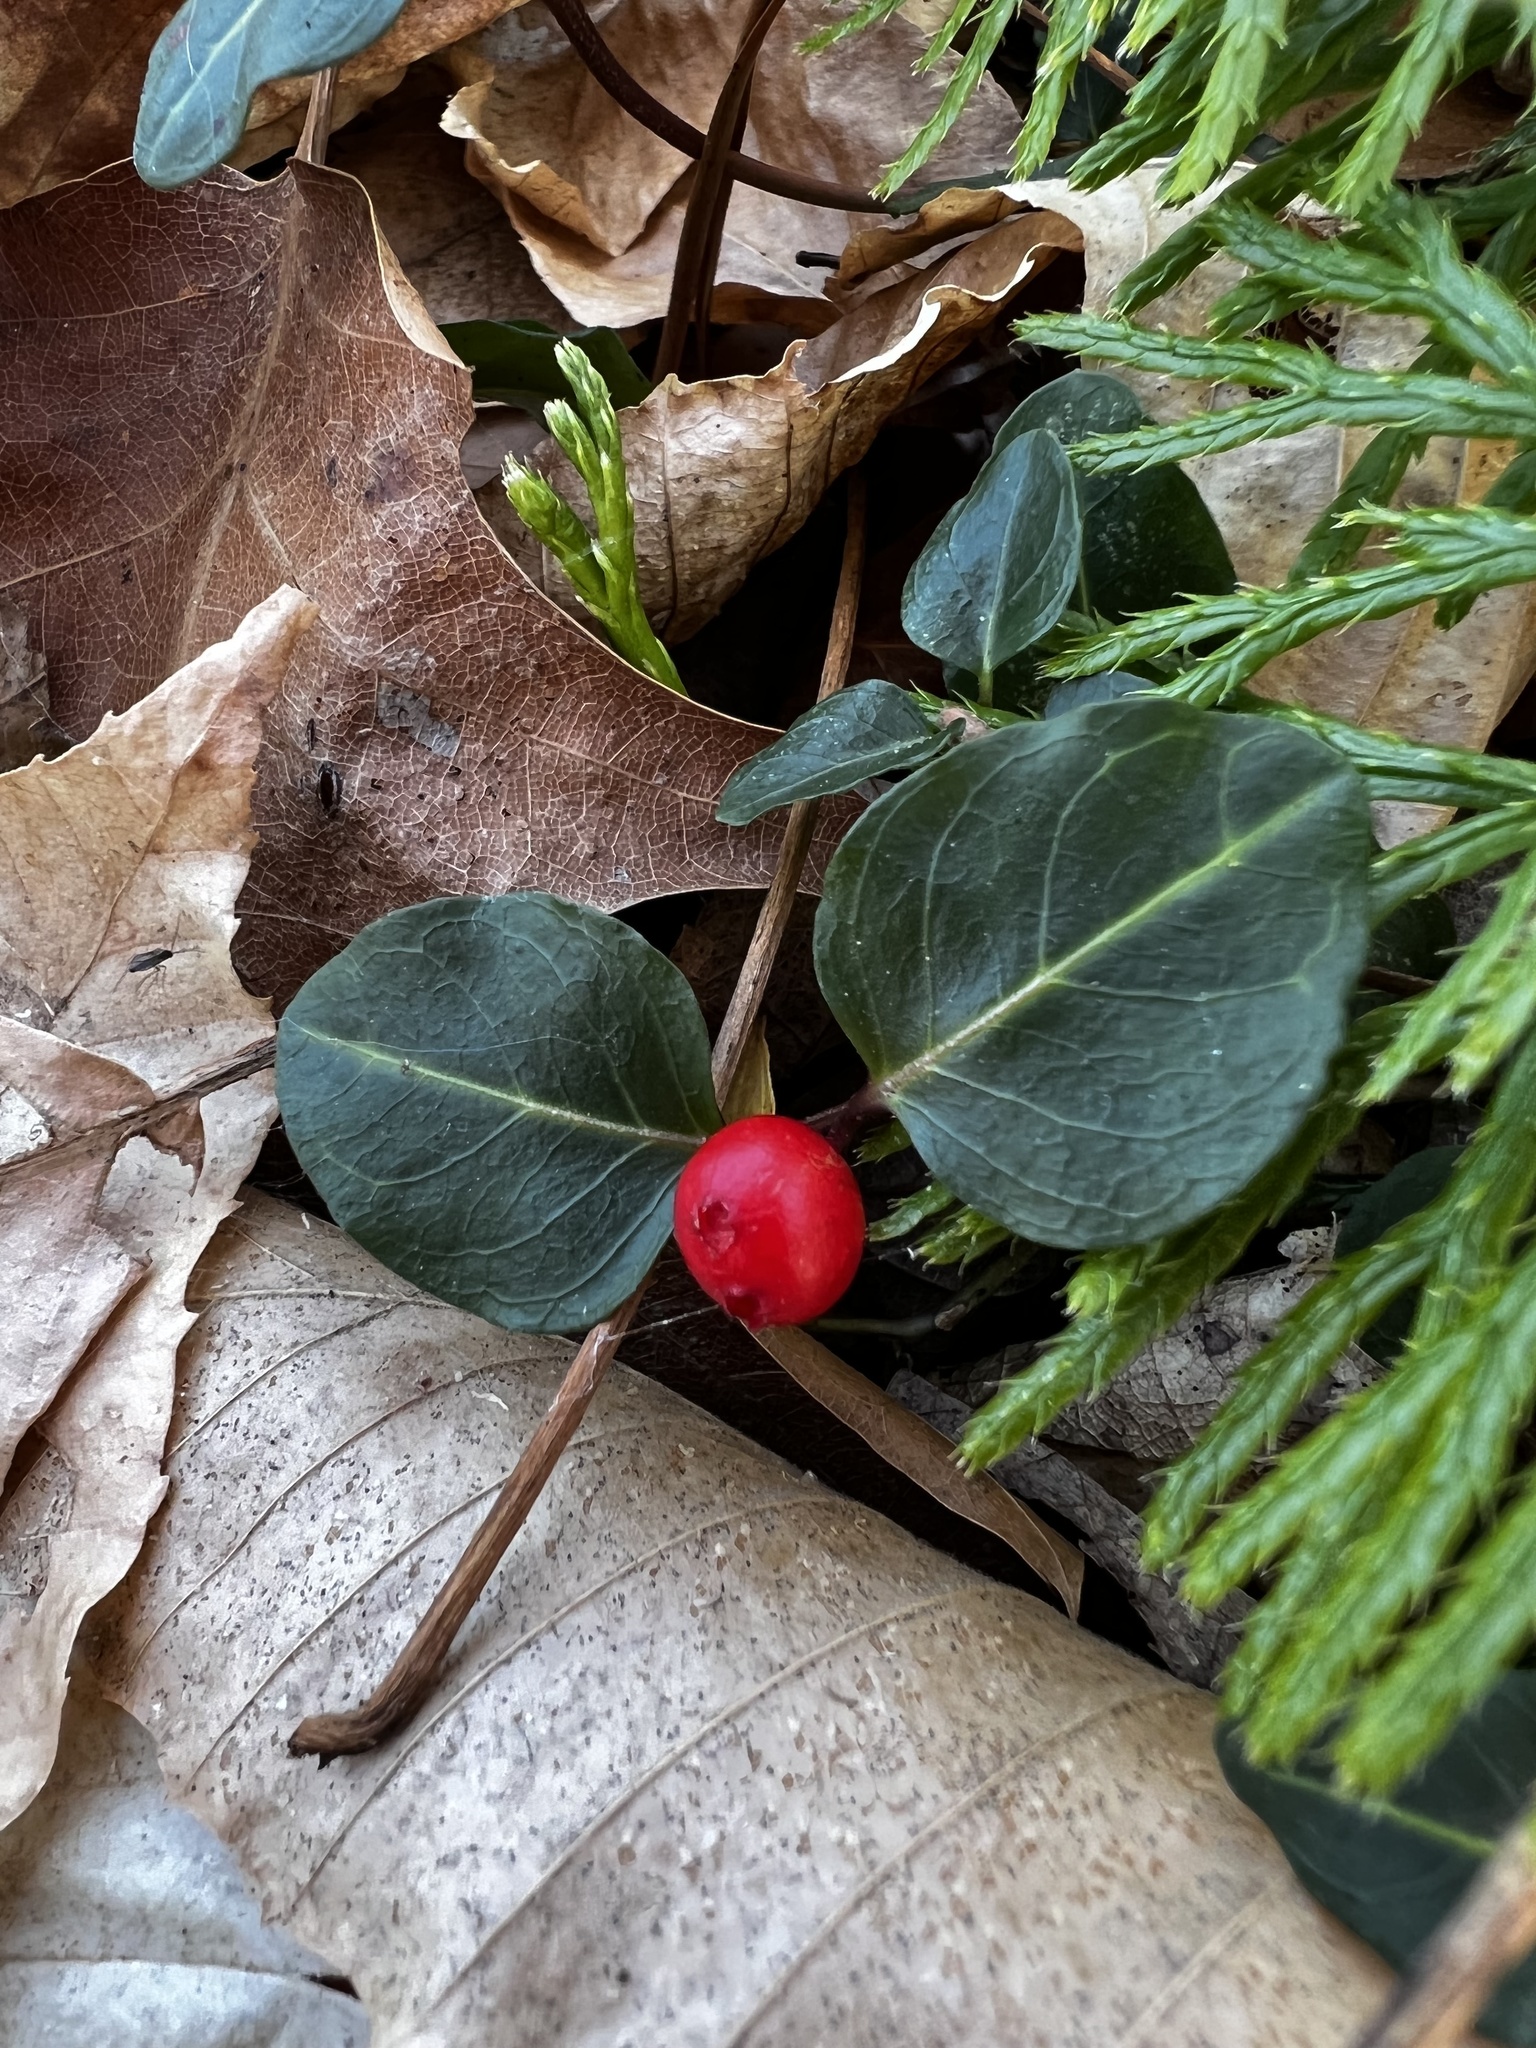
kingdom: Plantae
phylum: Tracheophyta
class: Magnoliopsida
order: Gentianales
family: Rubiaceae
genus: Mitchella
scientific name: Mitchella repens
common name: Partridge-berry
